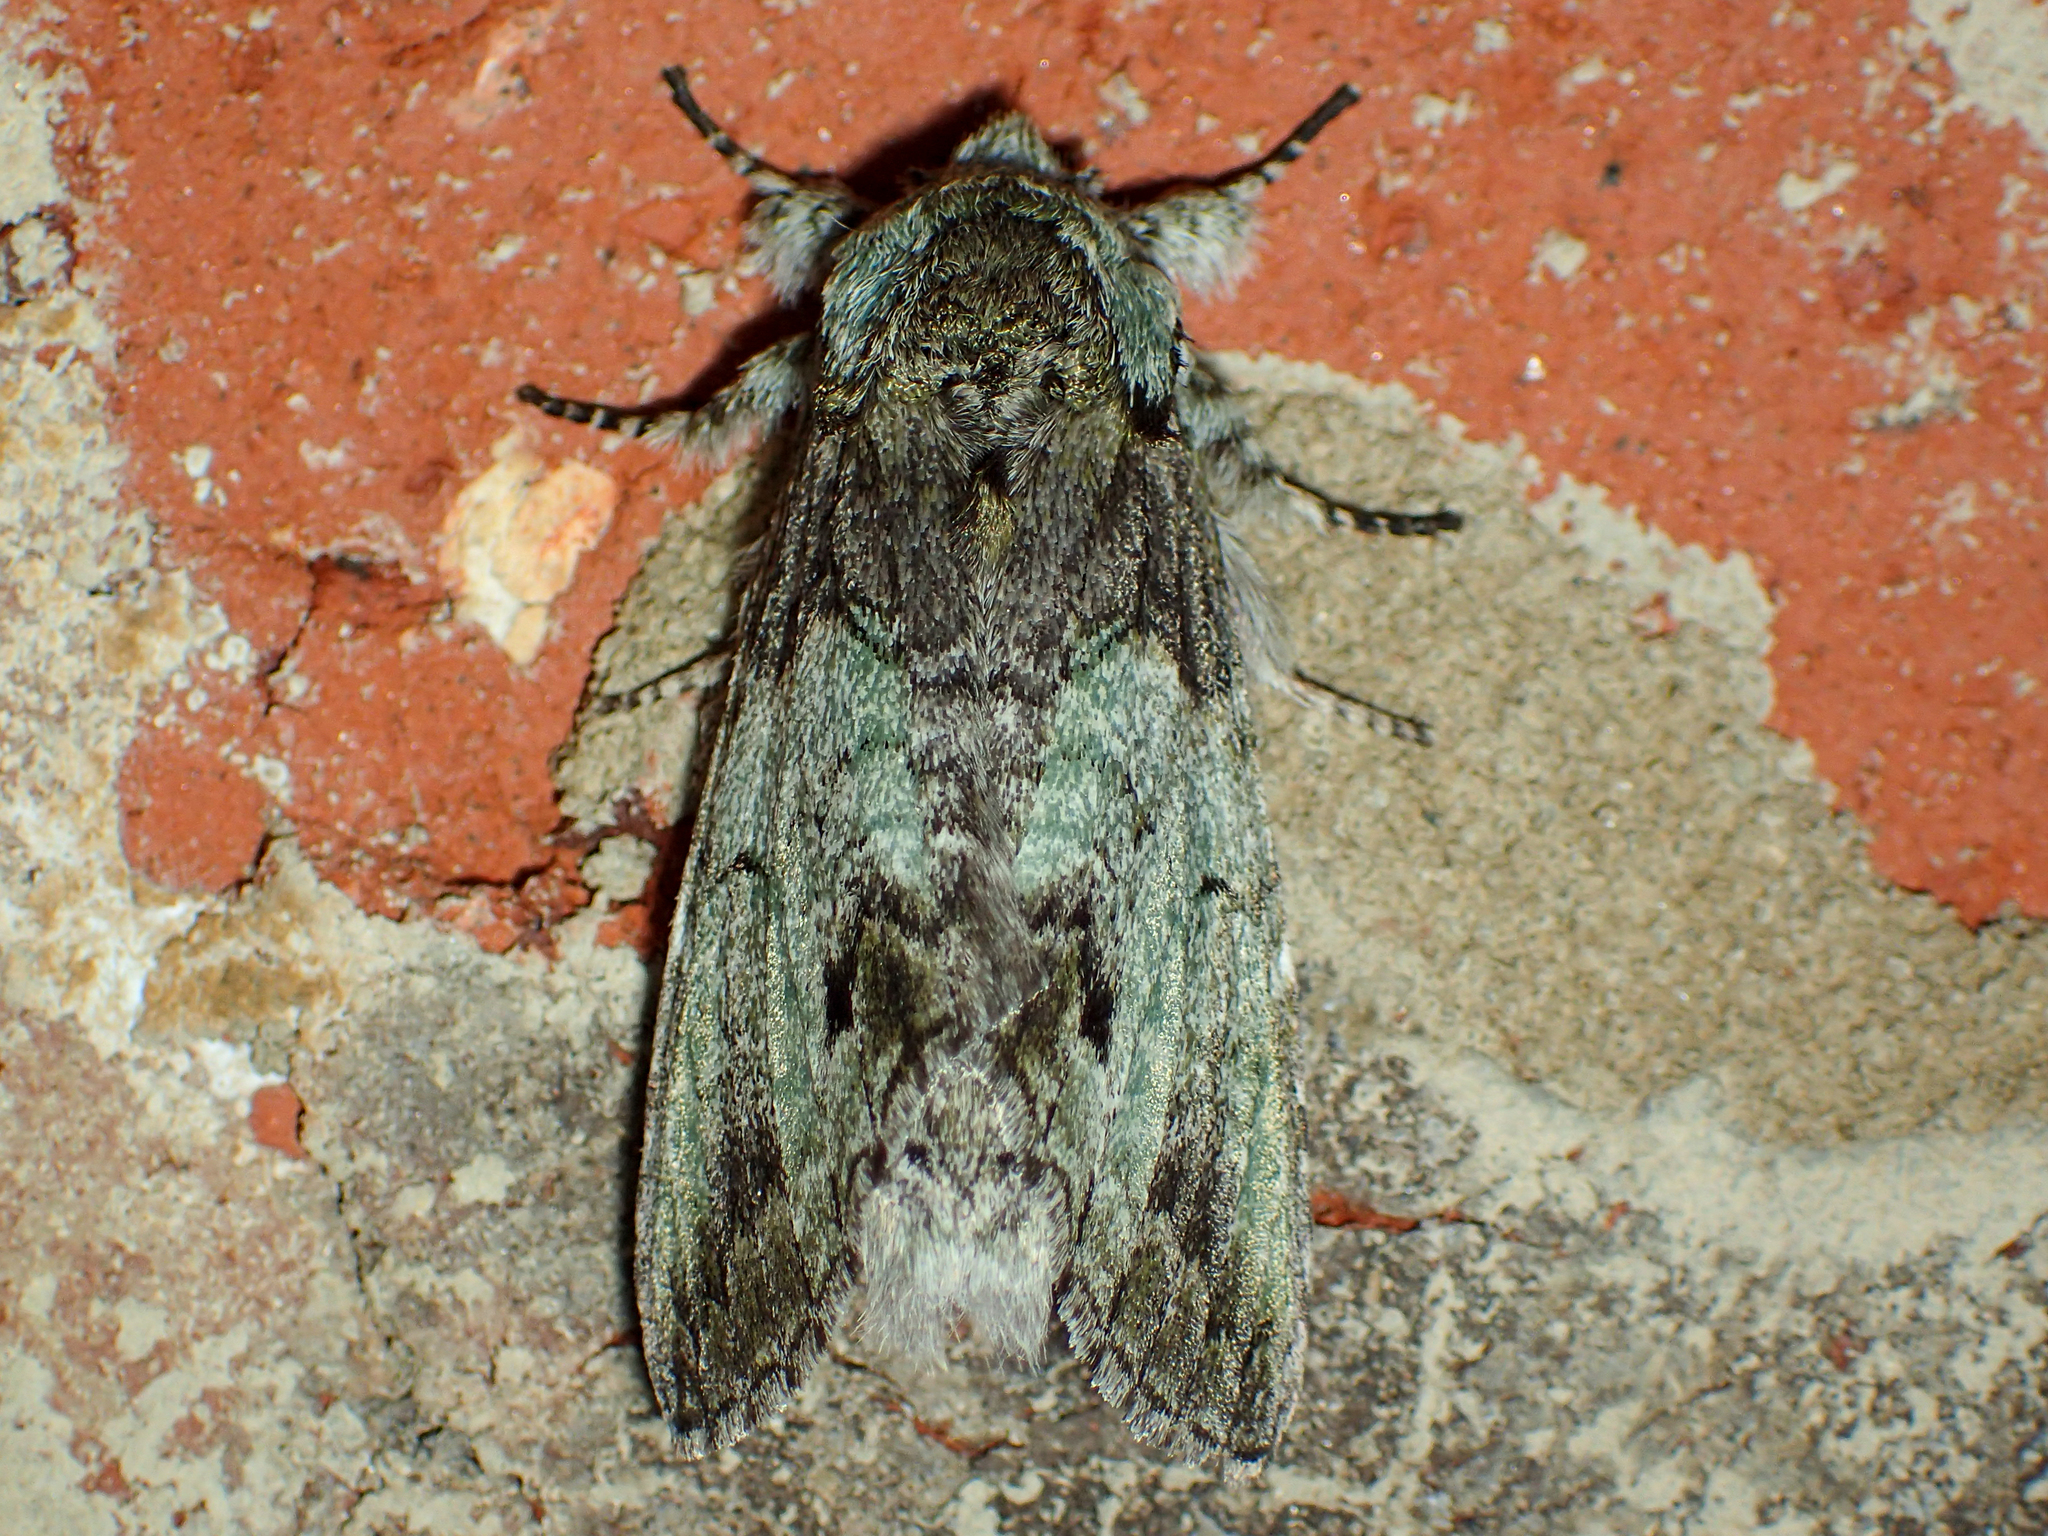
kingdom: Animalia
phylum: Arthropoda
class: Insecta
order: Lepidoptera
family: Notodontidae
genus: Macrurocampa
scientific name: Macrurocampa marthesia
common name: Mottled prominent
